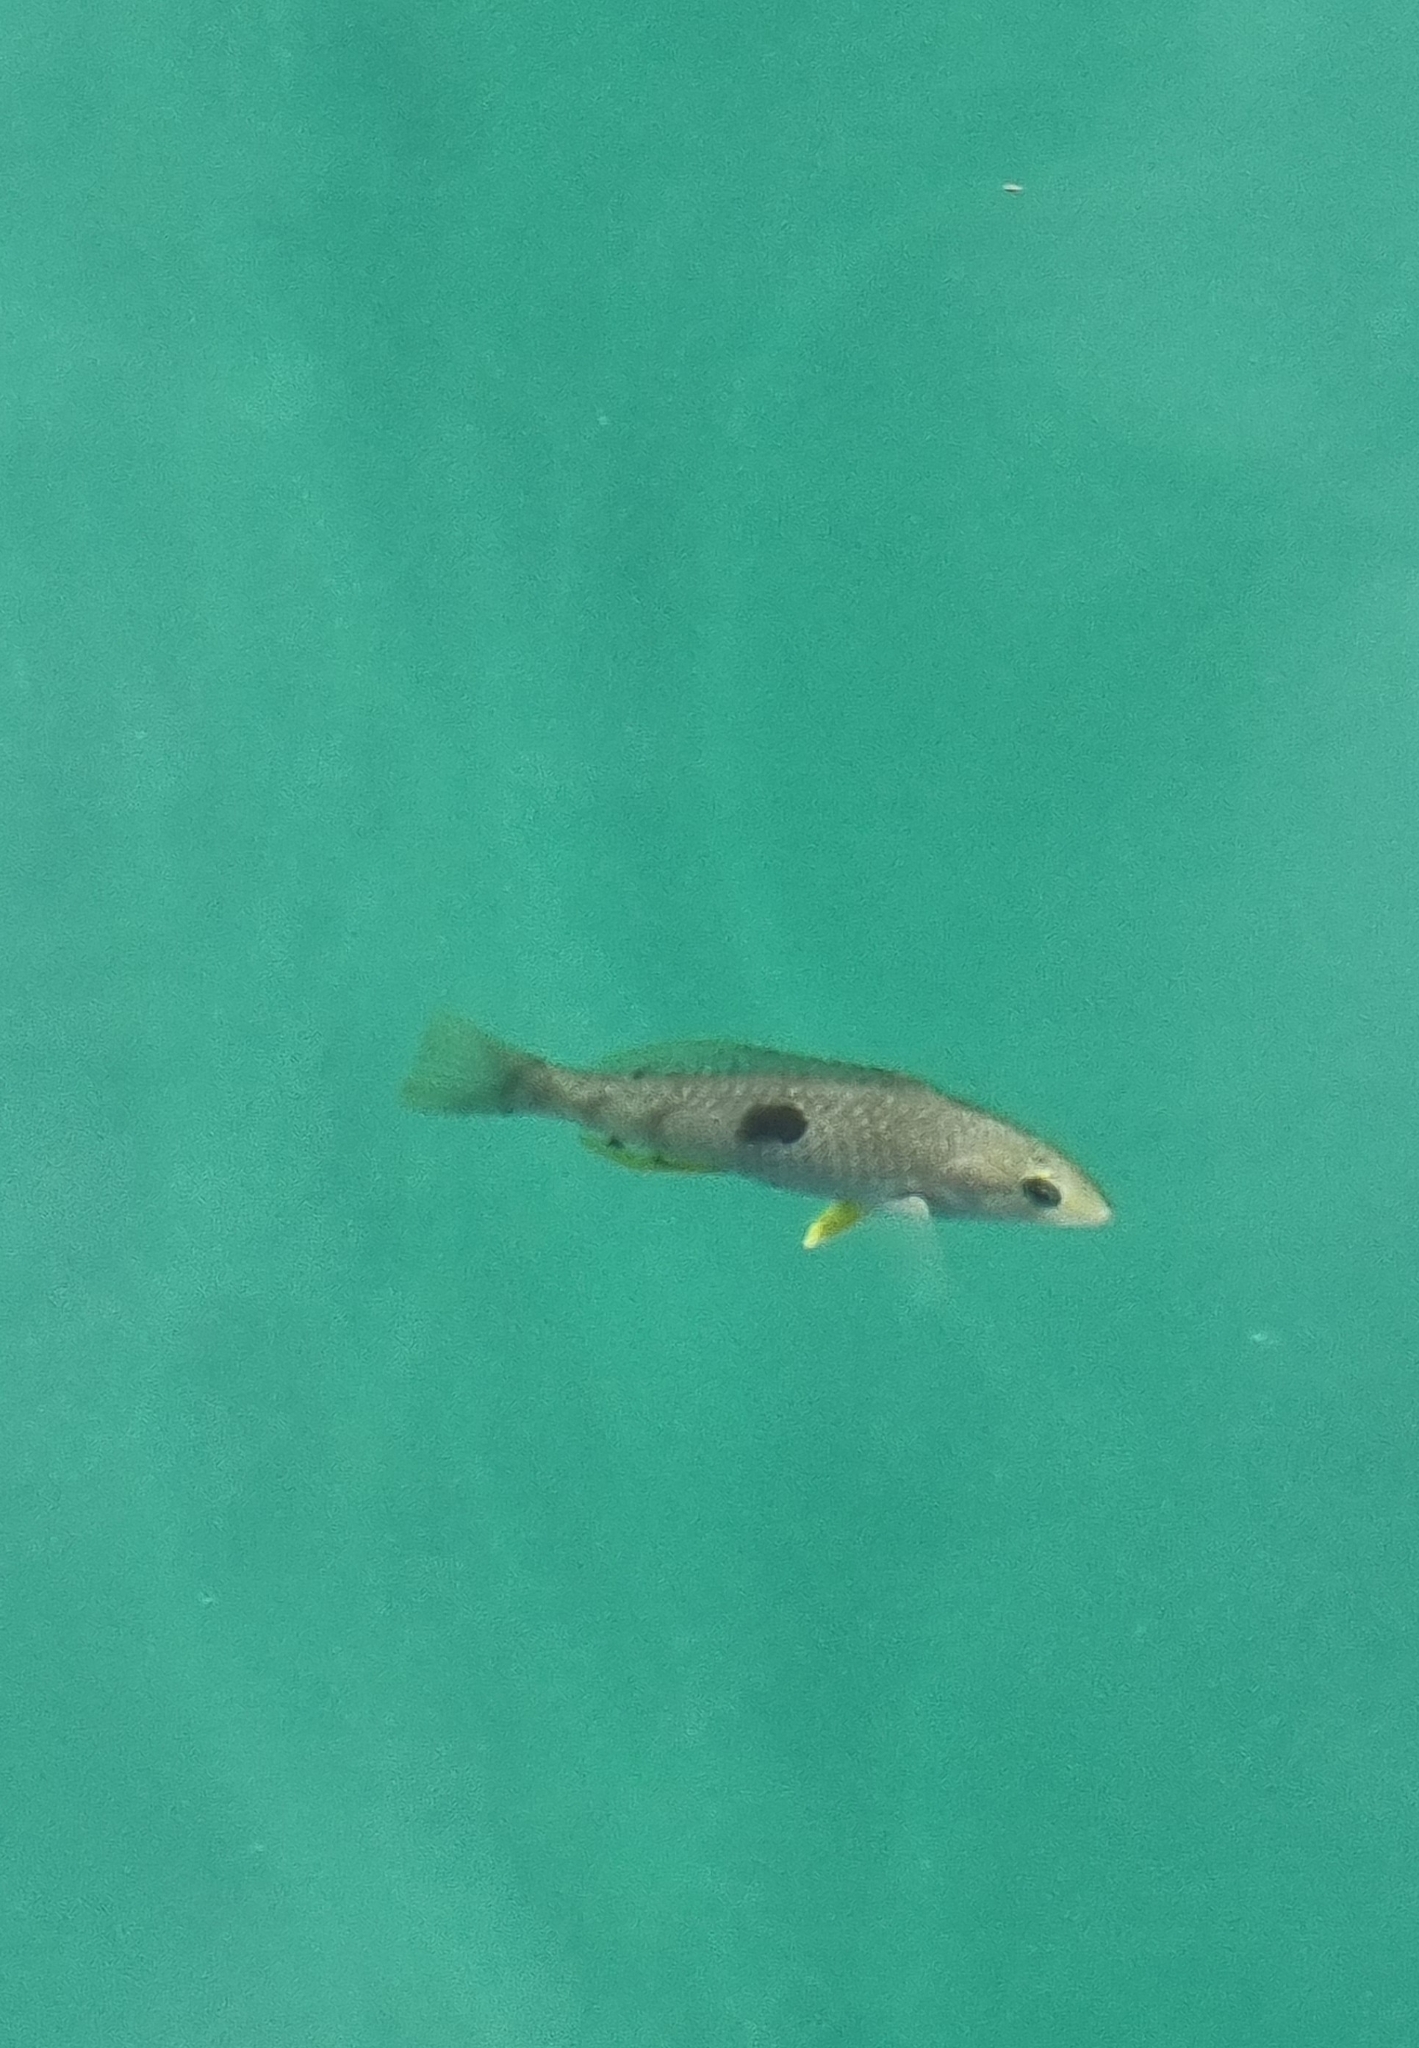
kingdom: Animalia
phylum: Chordata
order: Perciformes
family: Labridae
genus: Notolabrus
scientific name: Notolabrus celidotus
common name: Spotty
